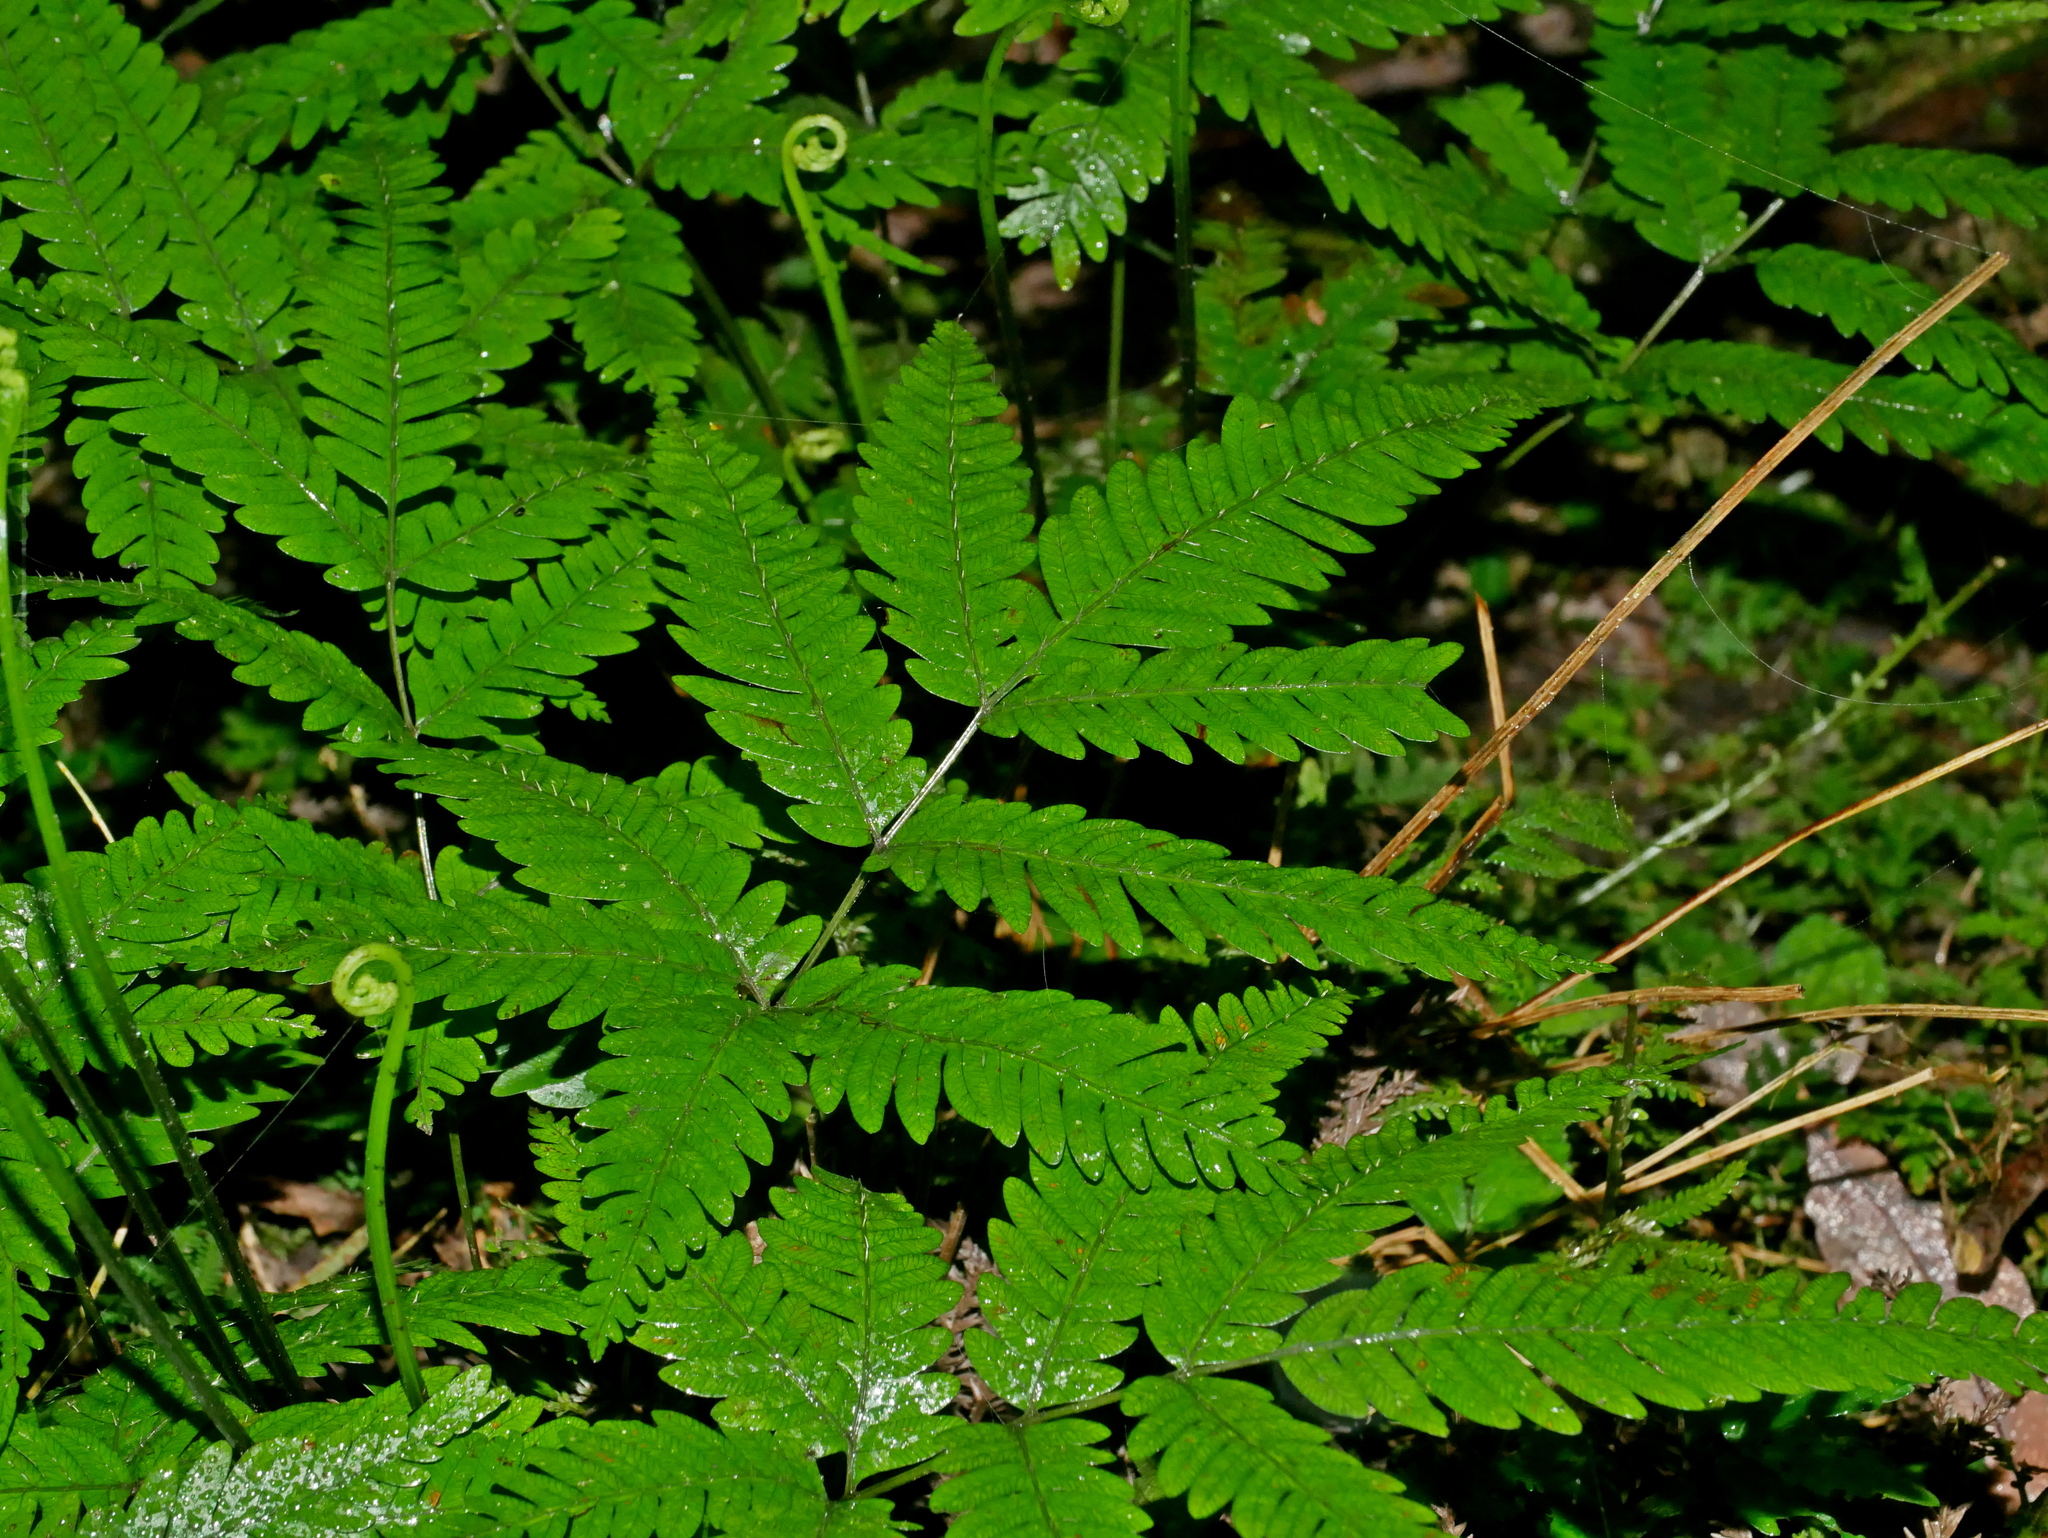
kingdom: Plantae
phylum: Tracheophyta
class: Polypodiopsida
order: Polypodiales
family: Pteridaceae
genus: Pteris
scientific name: Pteris wulaiensis
